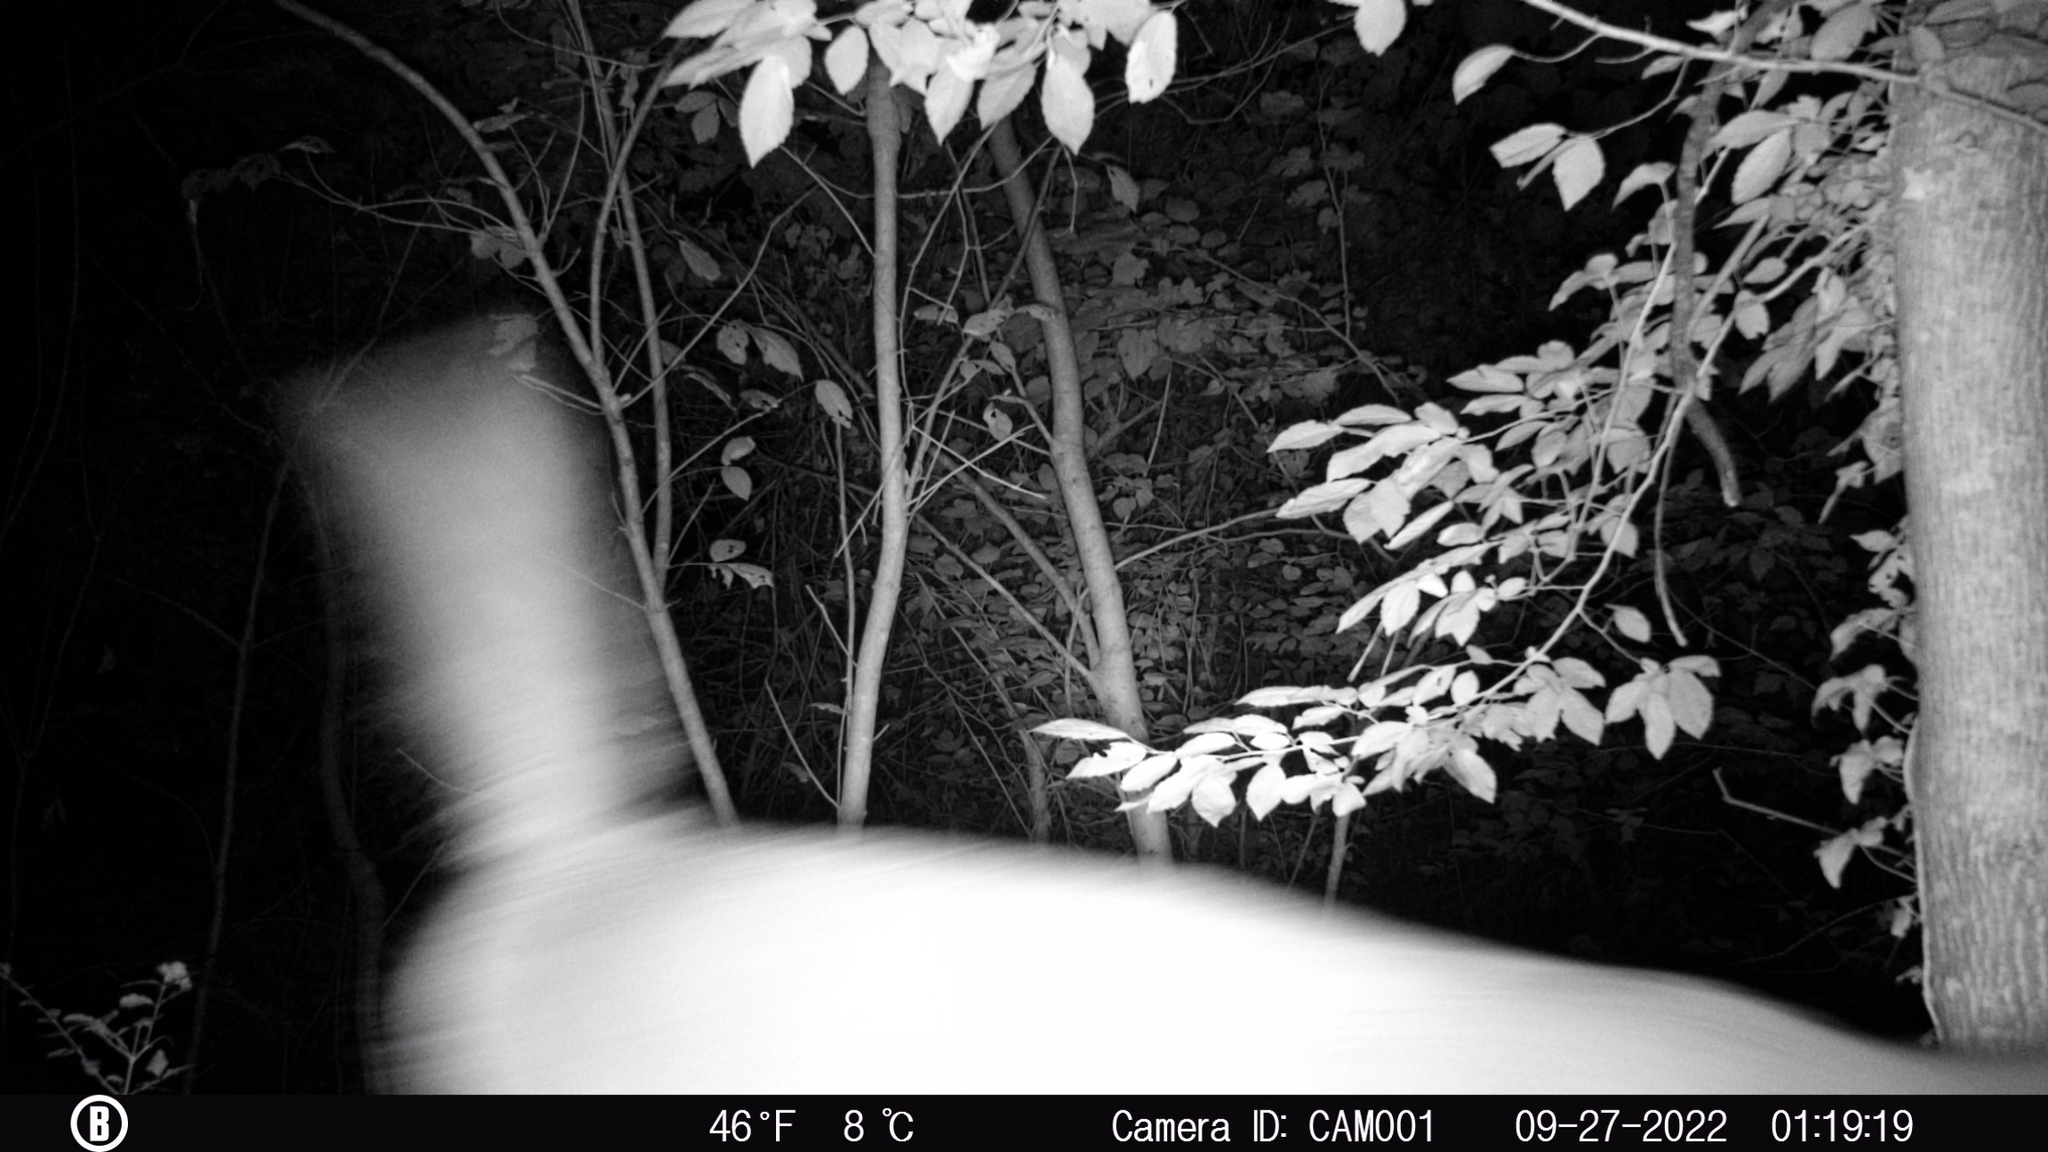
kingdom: Animalia
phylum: Chordata
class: Mammalia
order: Artiodactyla
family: Cervidae
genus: Odocoileus
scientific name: Odocoileus virginianus
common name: White-tailed deer
